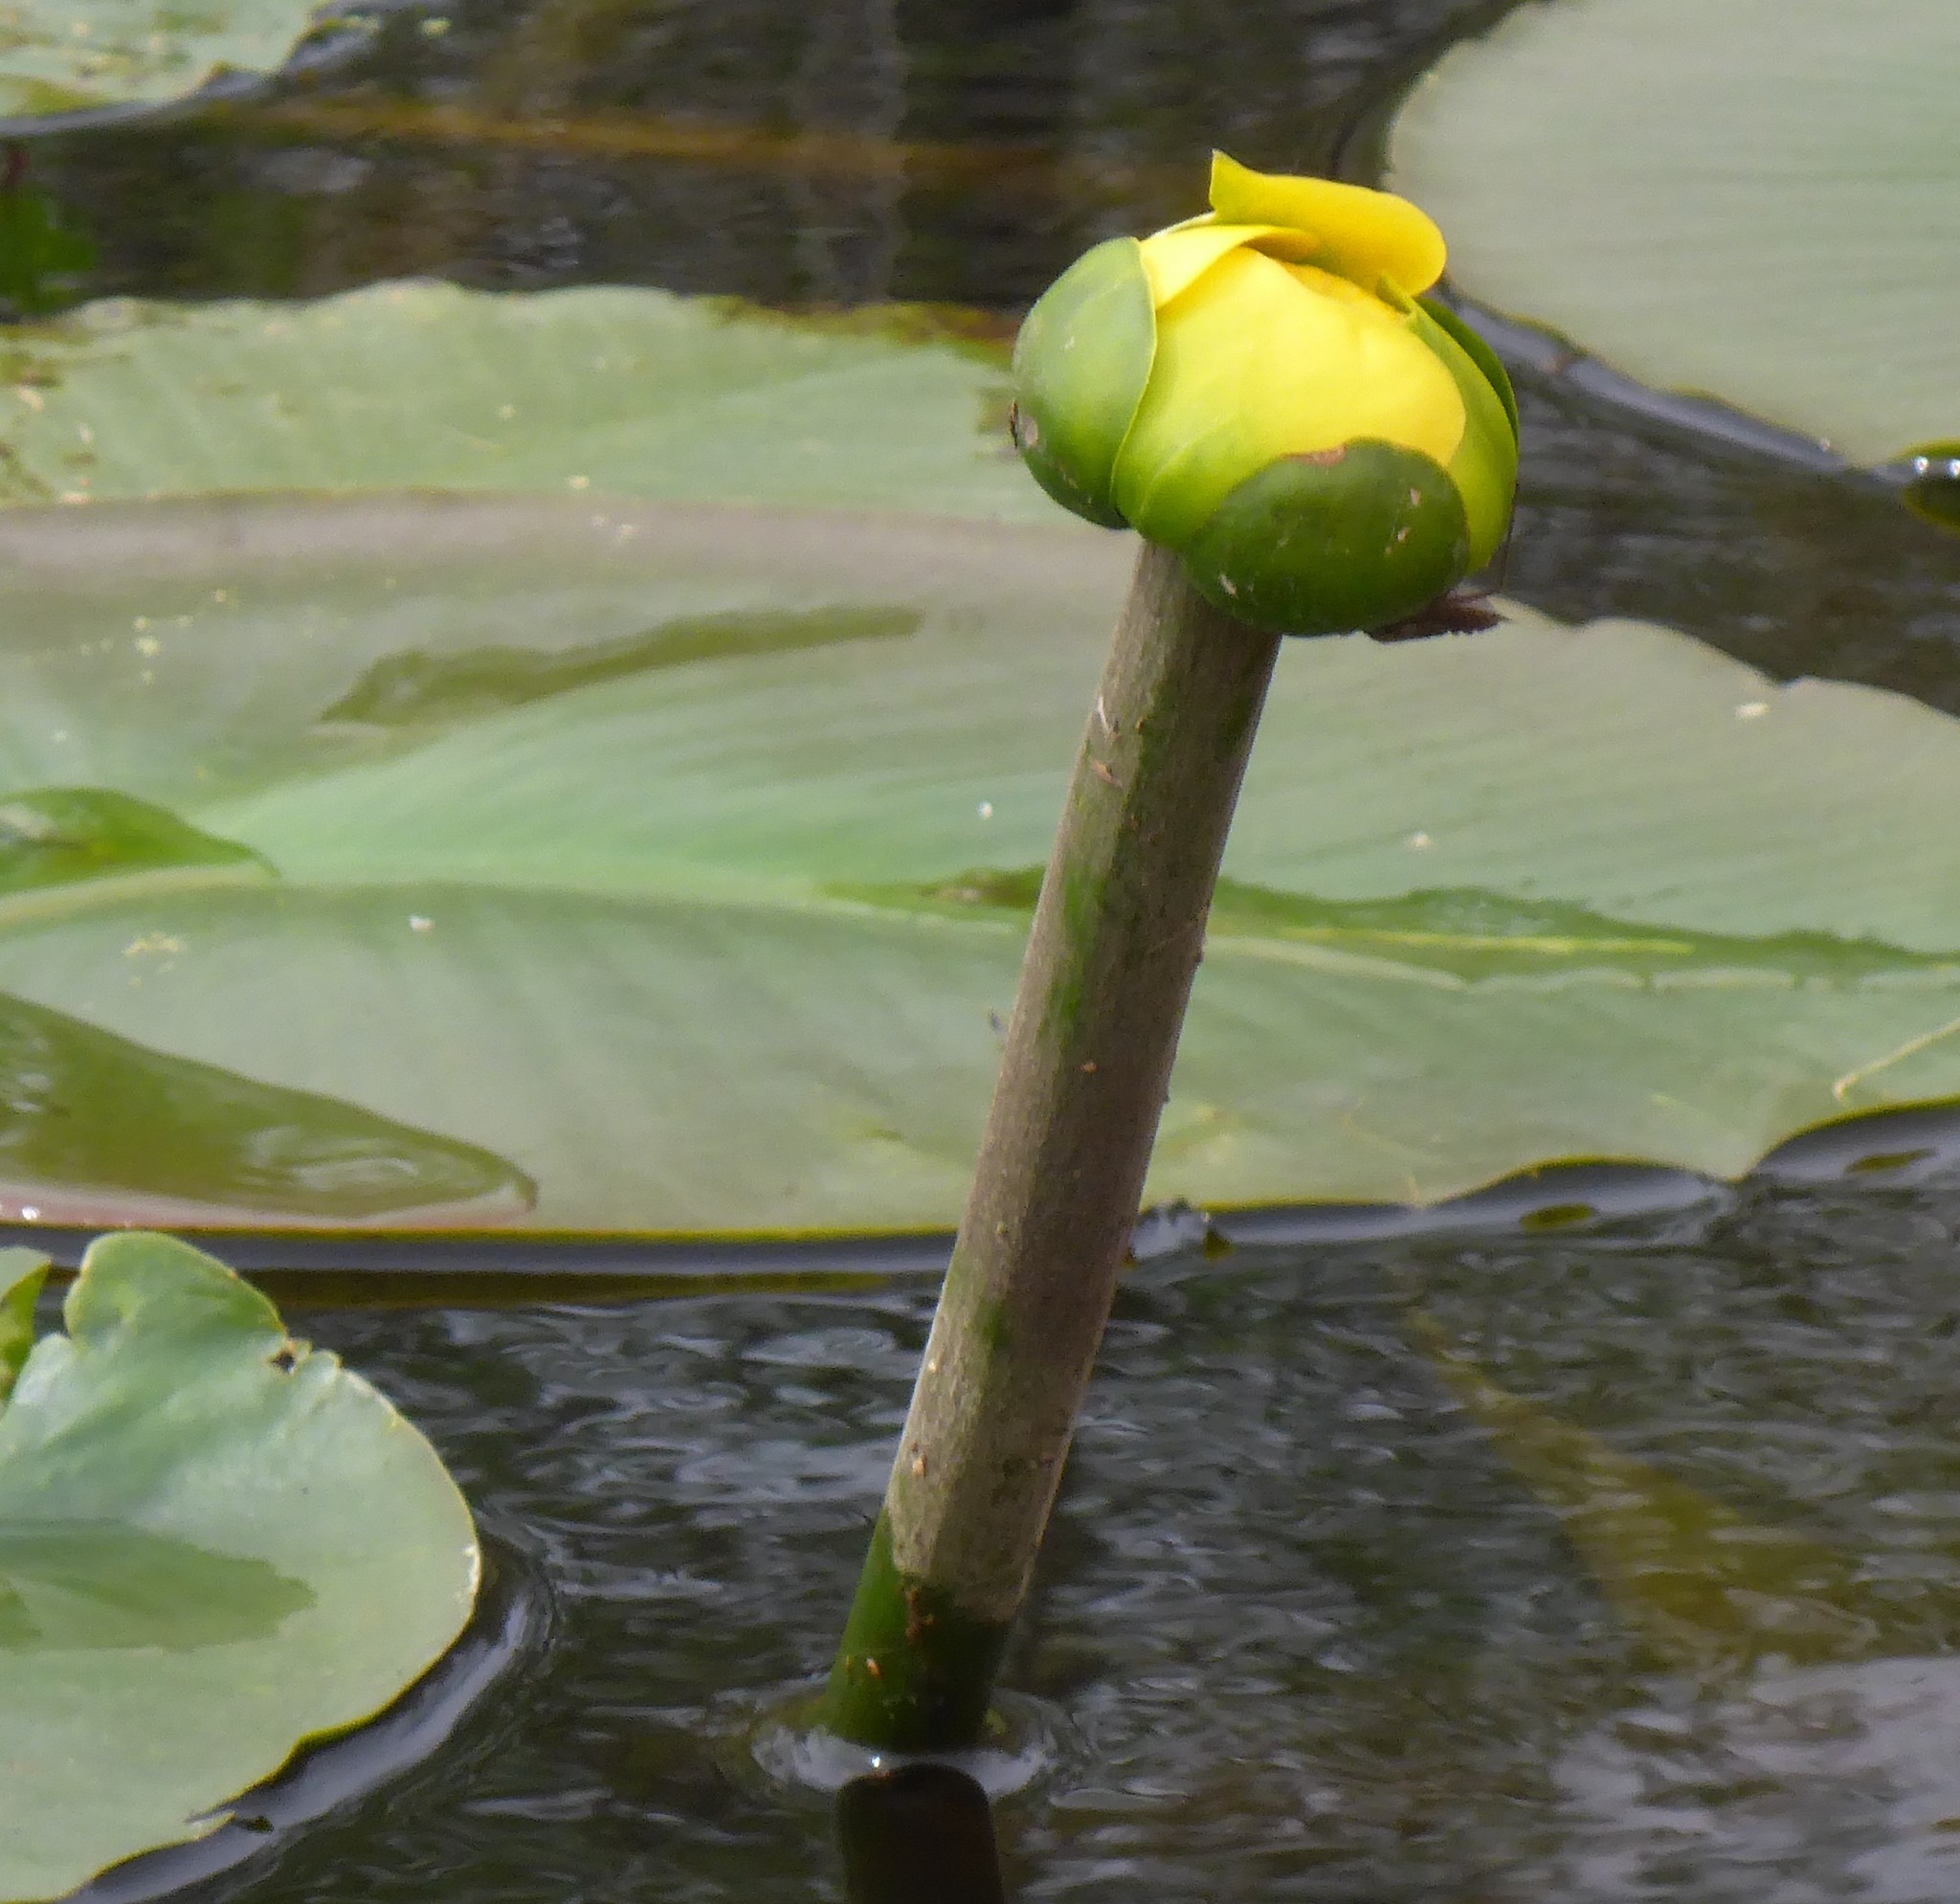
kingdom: Plantae
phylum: Tracheophyta
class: Magnoliopsida
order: Nymphaeales
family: Nymphaeaceae
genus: Nuphar
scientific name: Nuphar advena
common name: Spatter-dock
